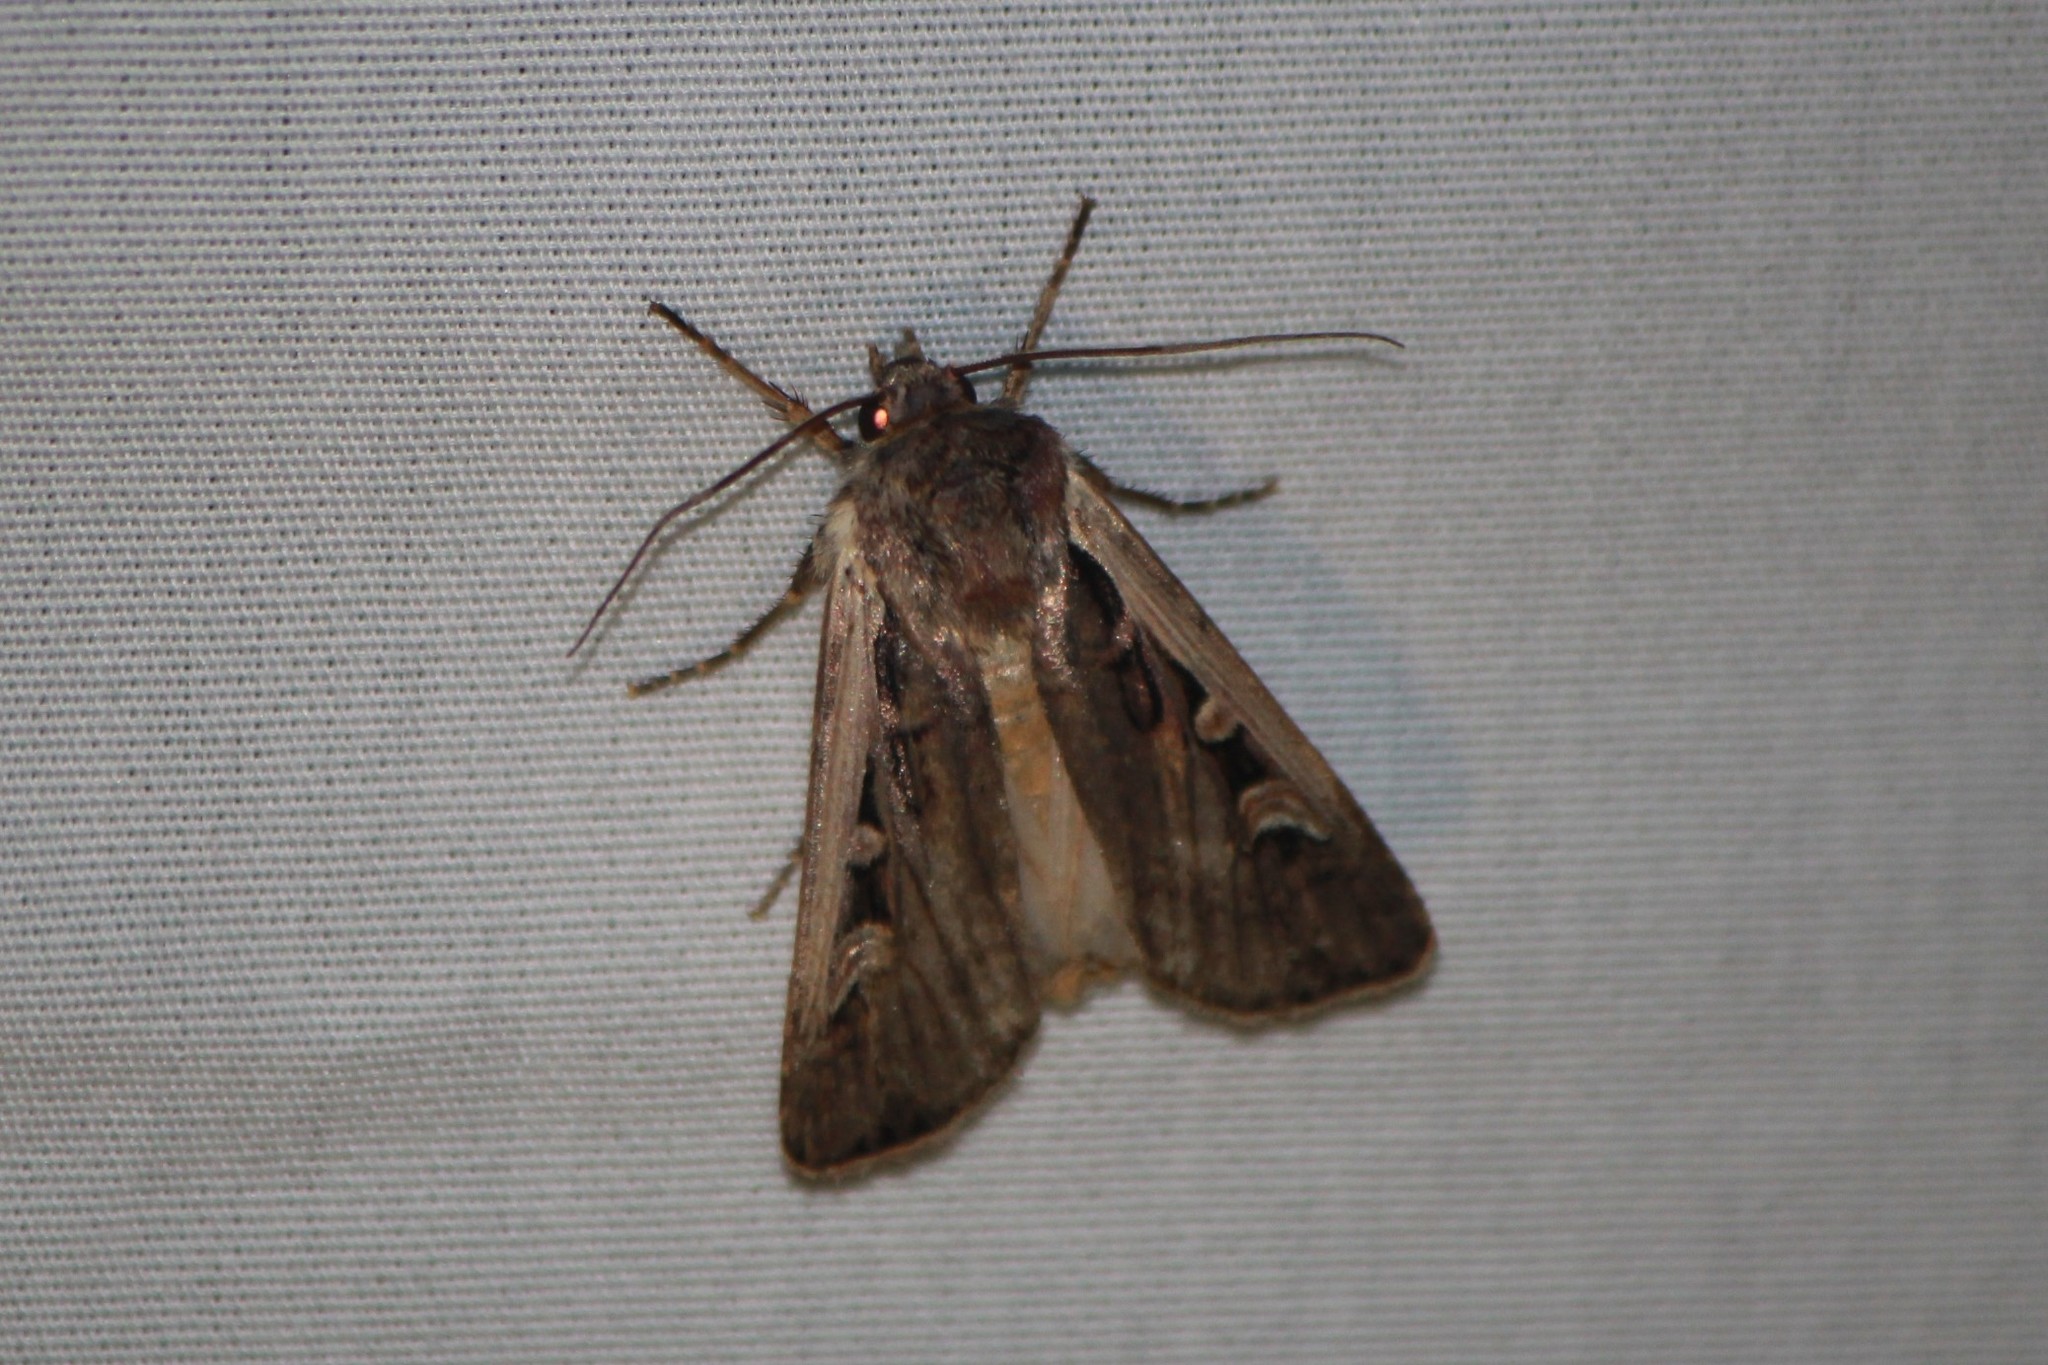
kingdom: Animalia
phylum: Arthropoda
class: Insecta
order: Lepidoptera
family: Noctuidae
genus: Striacosta
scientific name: Striacosta albicosta
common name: Western bean cutworm moth
